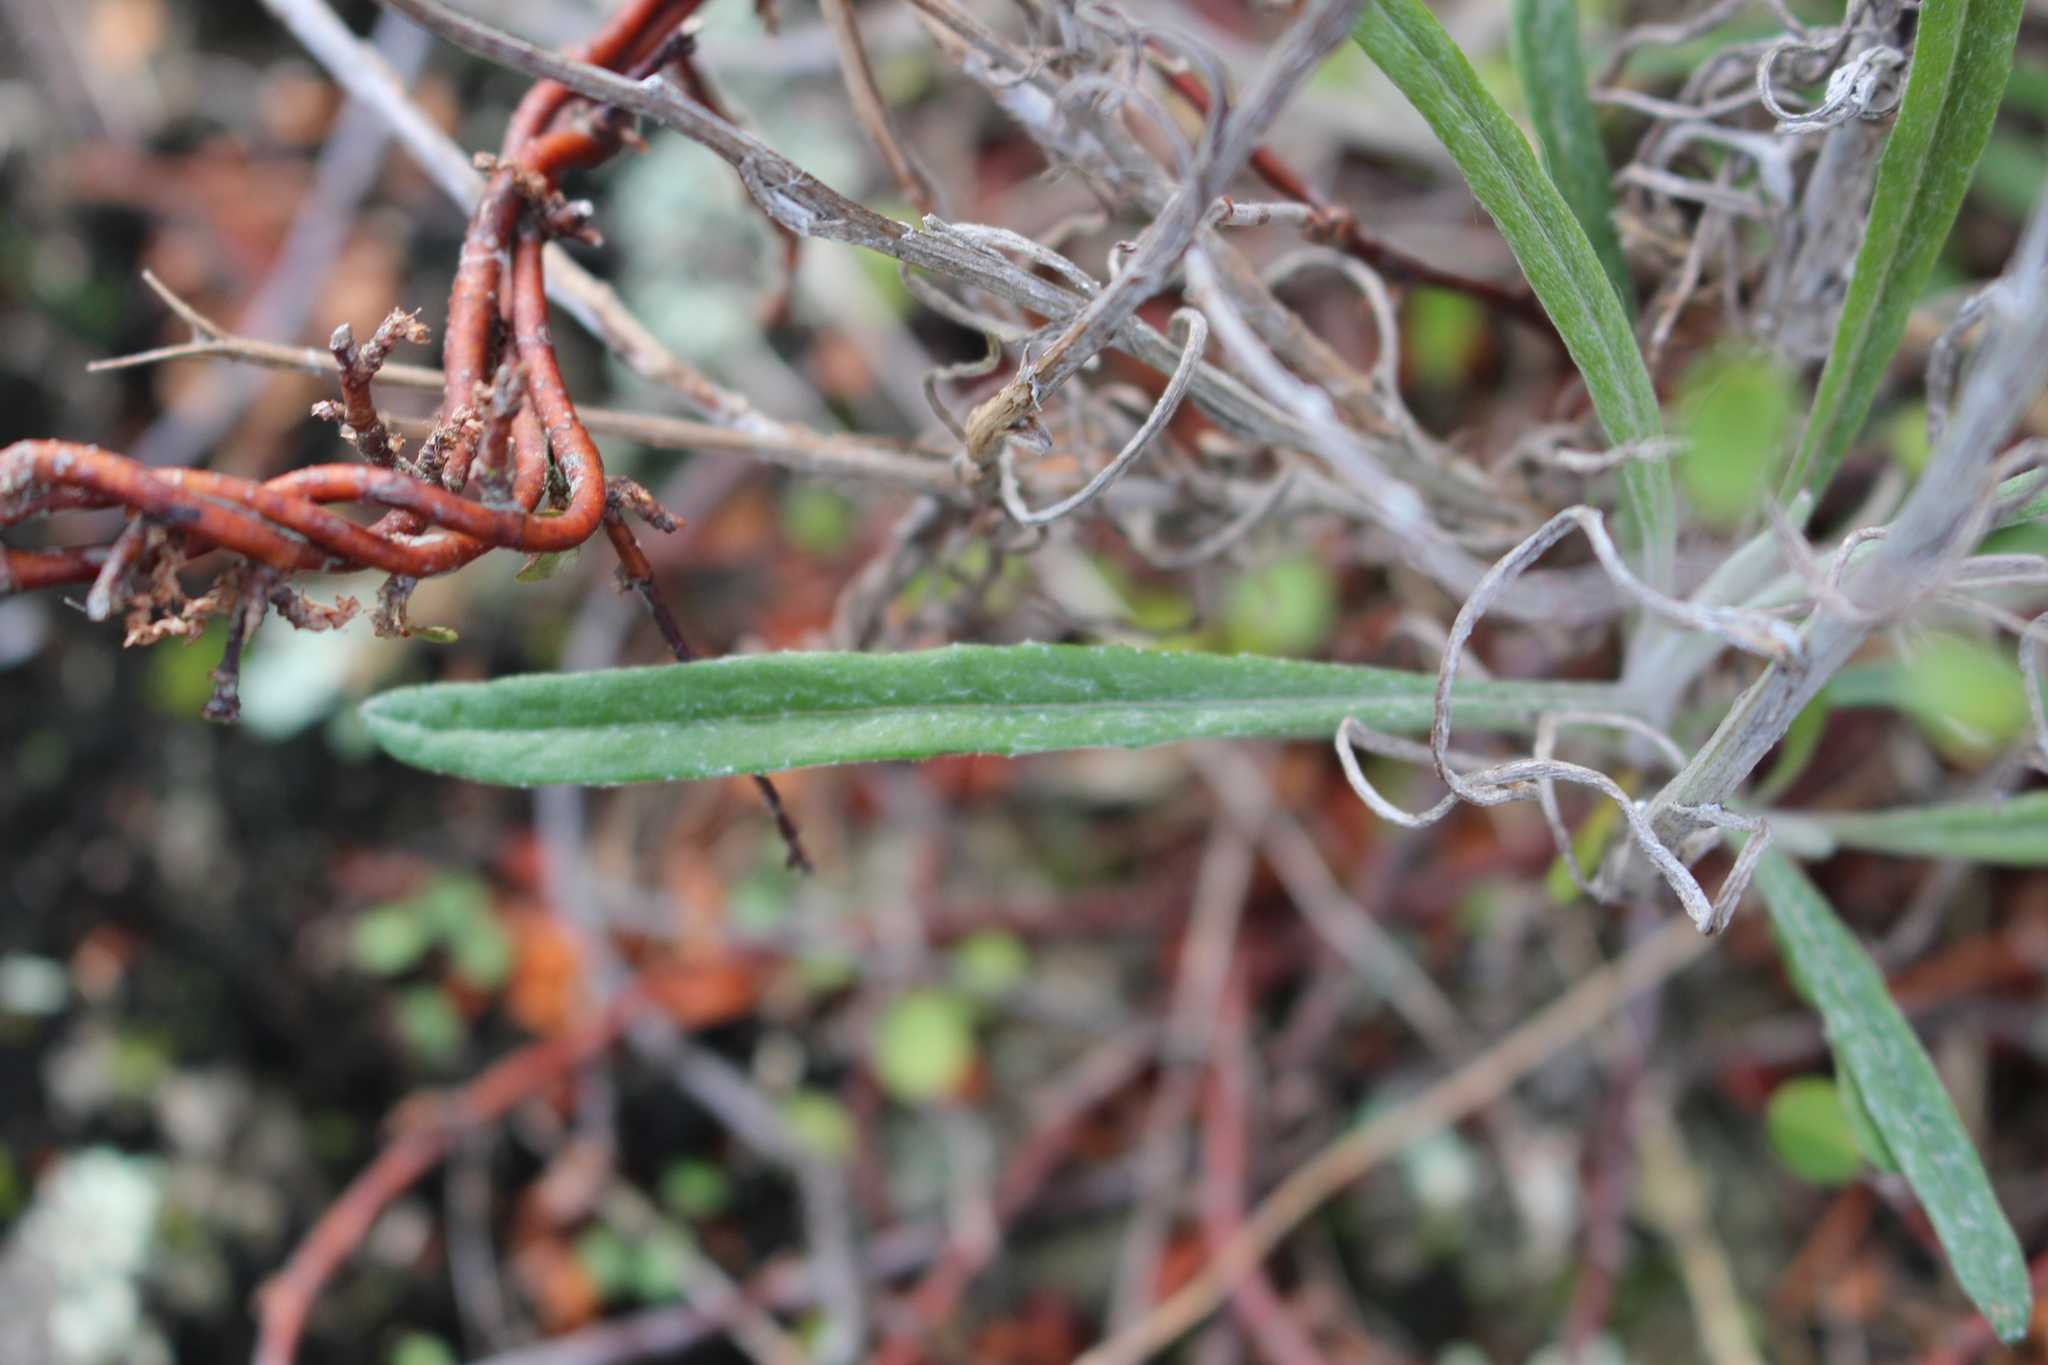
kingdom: Plantae
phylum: Tracheophyta
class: Magnoliopsida
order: Asterales
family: Asteraceae
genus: Senecio
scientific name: Senecio quadridentatus
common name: Cotton fireweed
